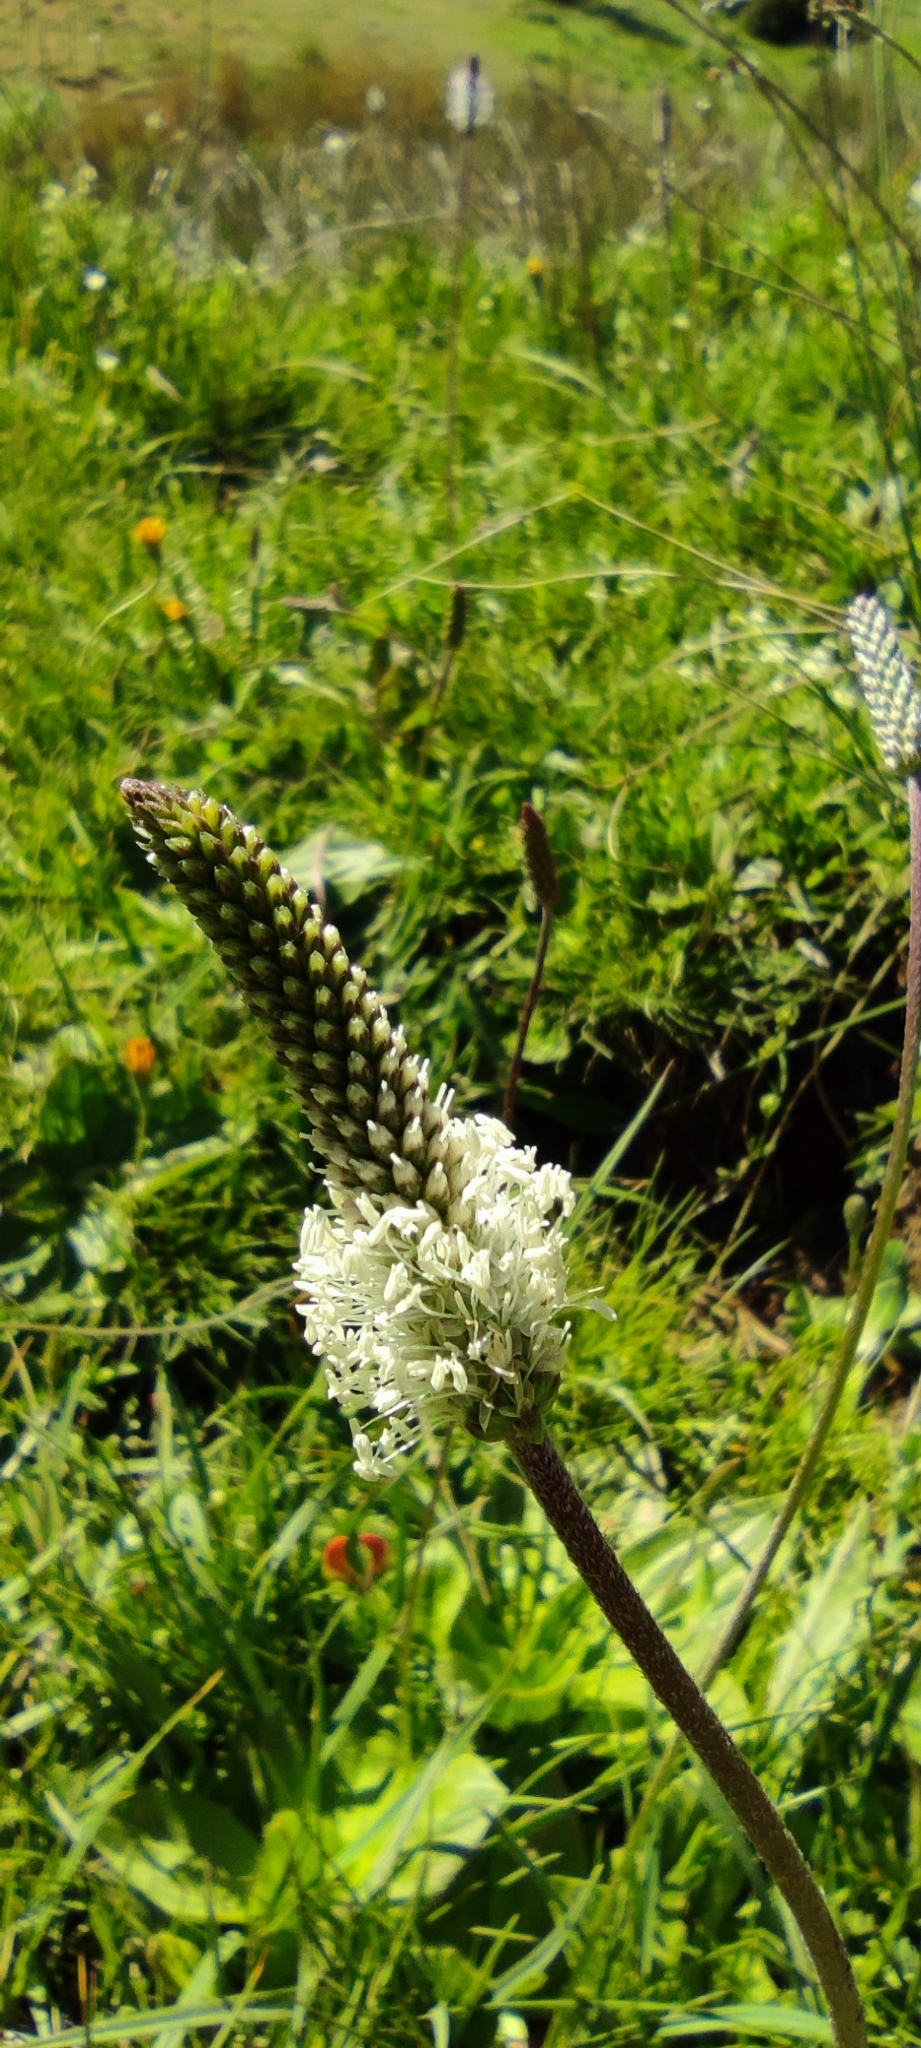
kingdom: Plantae
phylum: Tracheophyta
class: Magnoliopsida
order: Lamiales
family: Plantaginaceae
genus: Plantago
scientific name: Plantago media
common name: Hoary plantain
